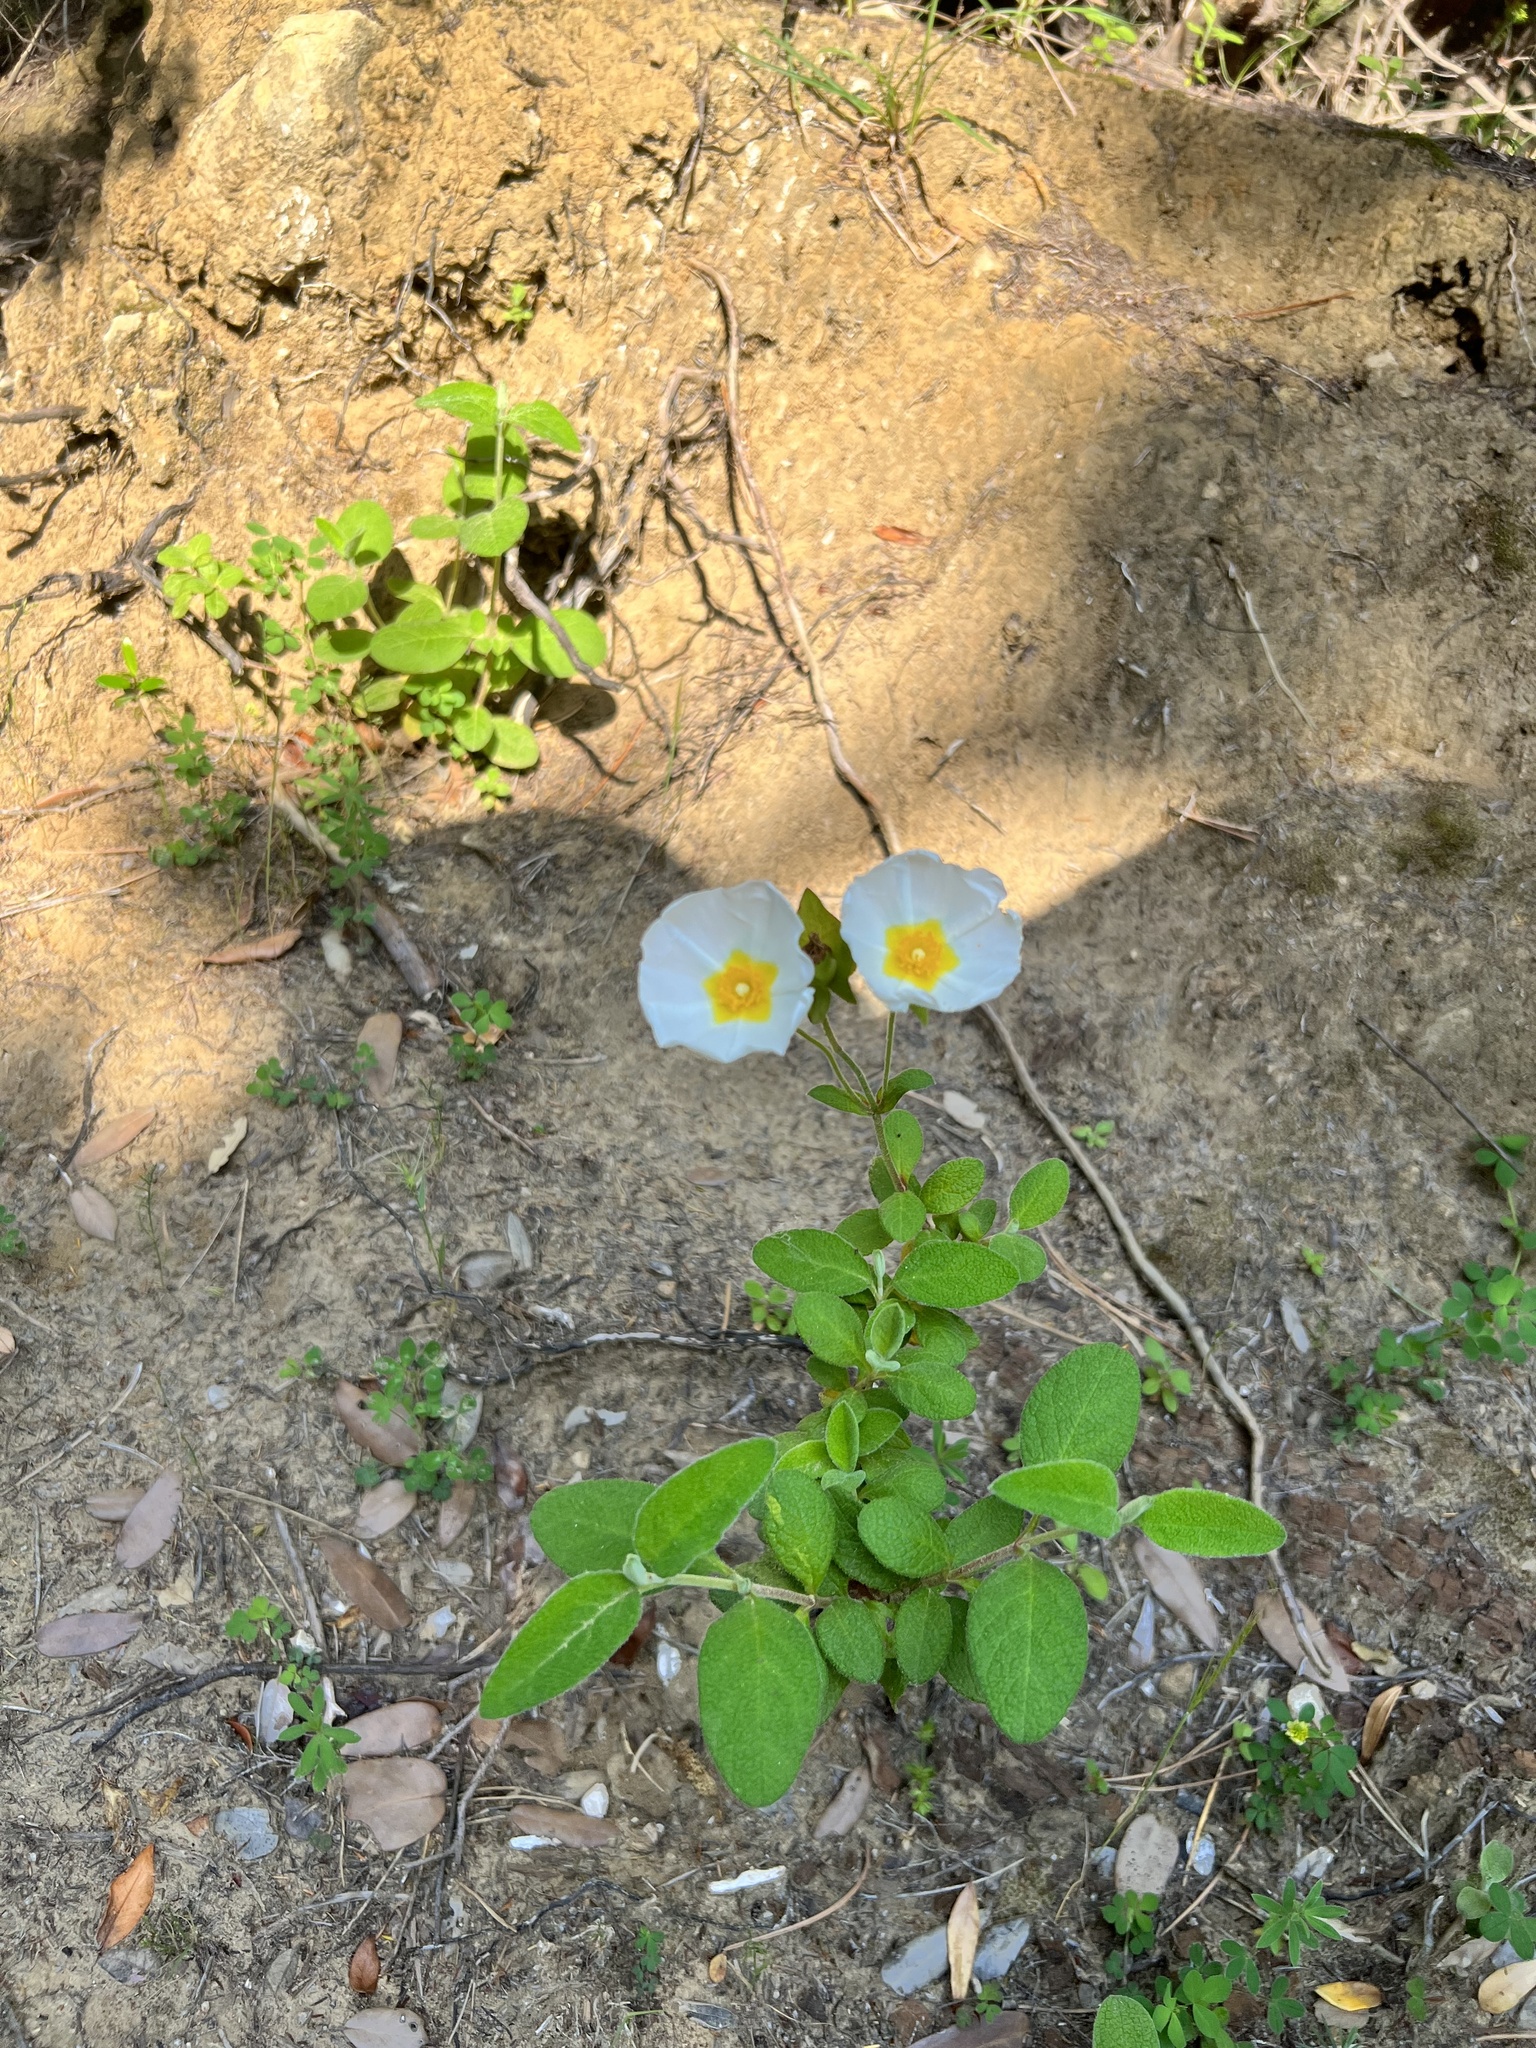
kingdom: Plantae
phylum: Tracheophyta
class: Magnoliopsida
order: Malvales
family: Cistaceae
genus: Cistus
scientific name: Cistus salviifolius
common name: Salvia cistus
